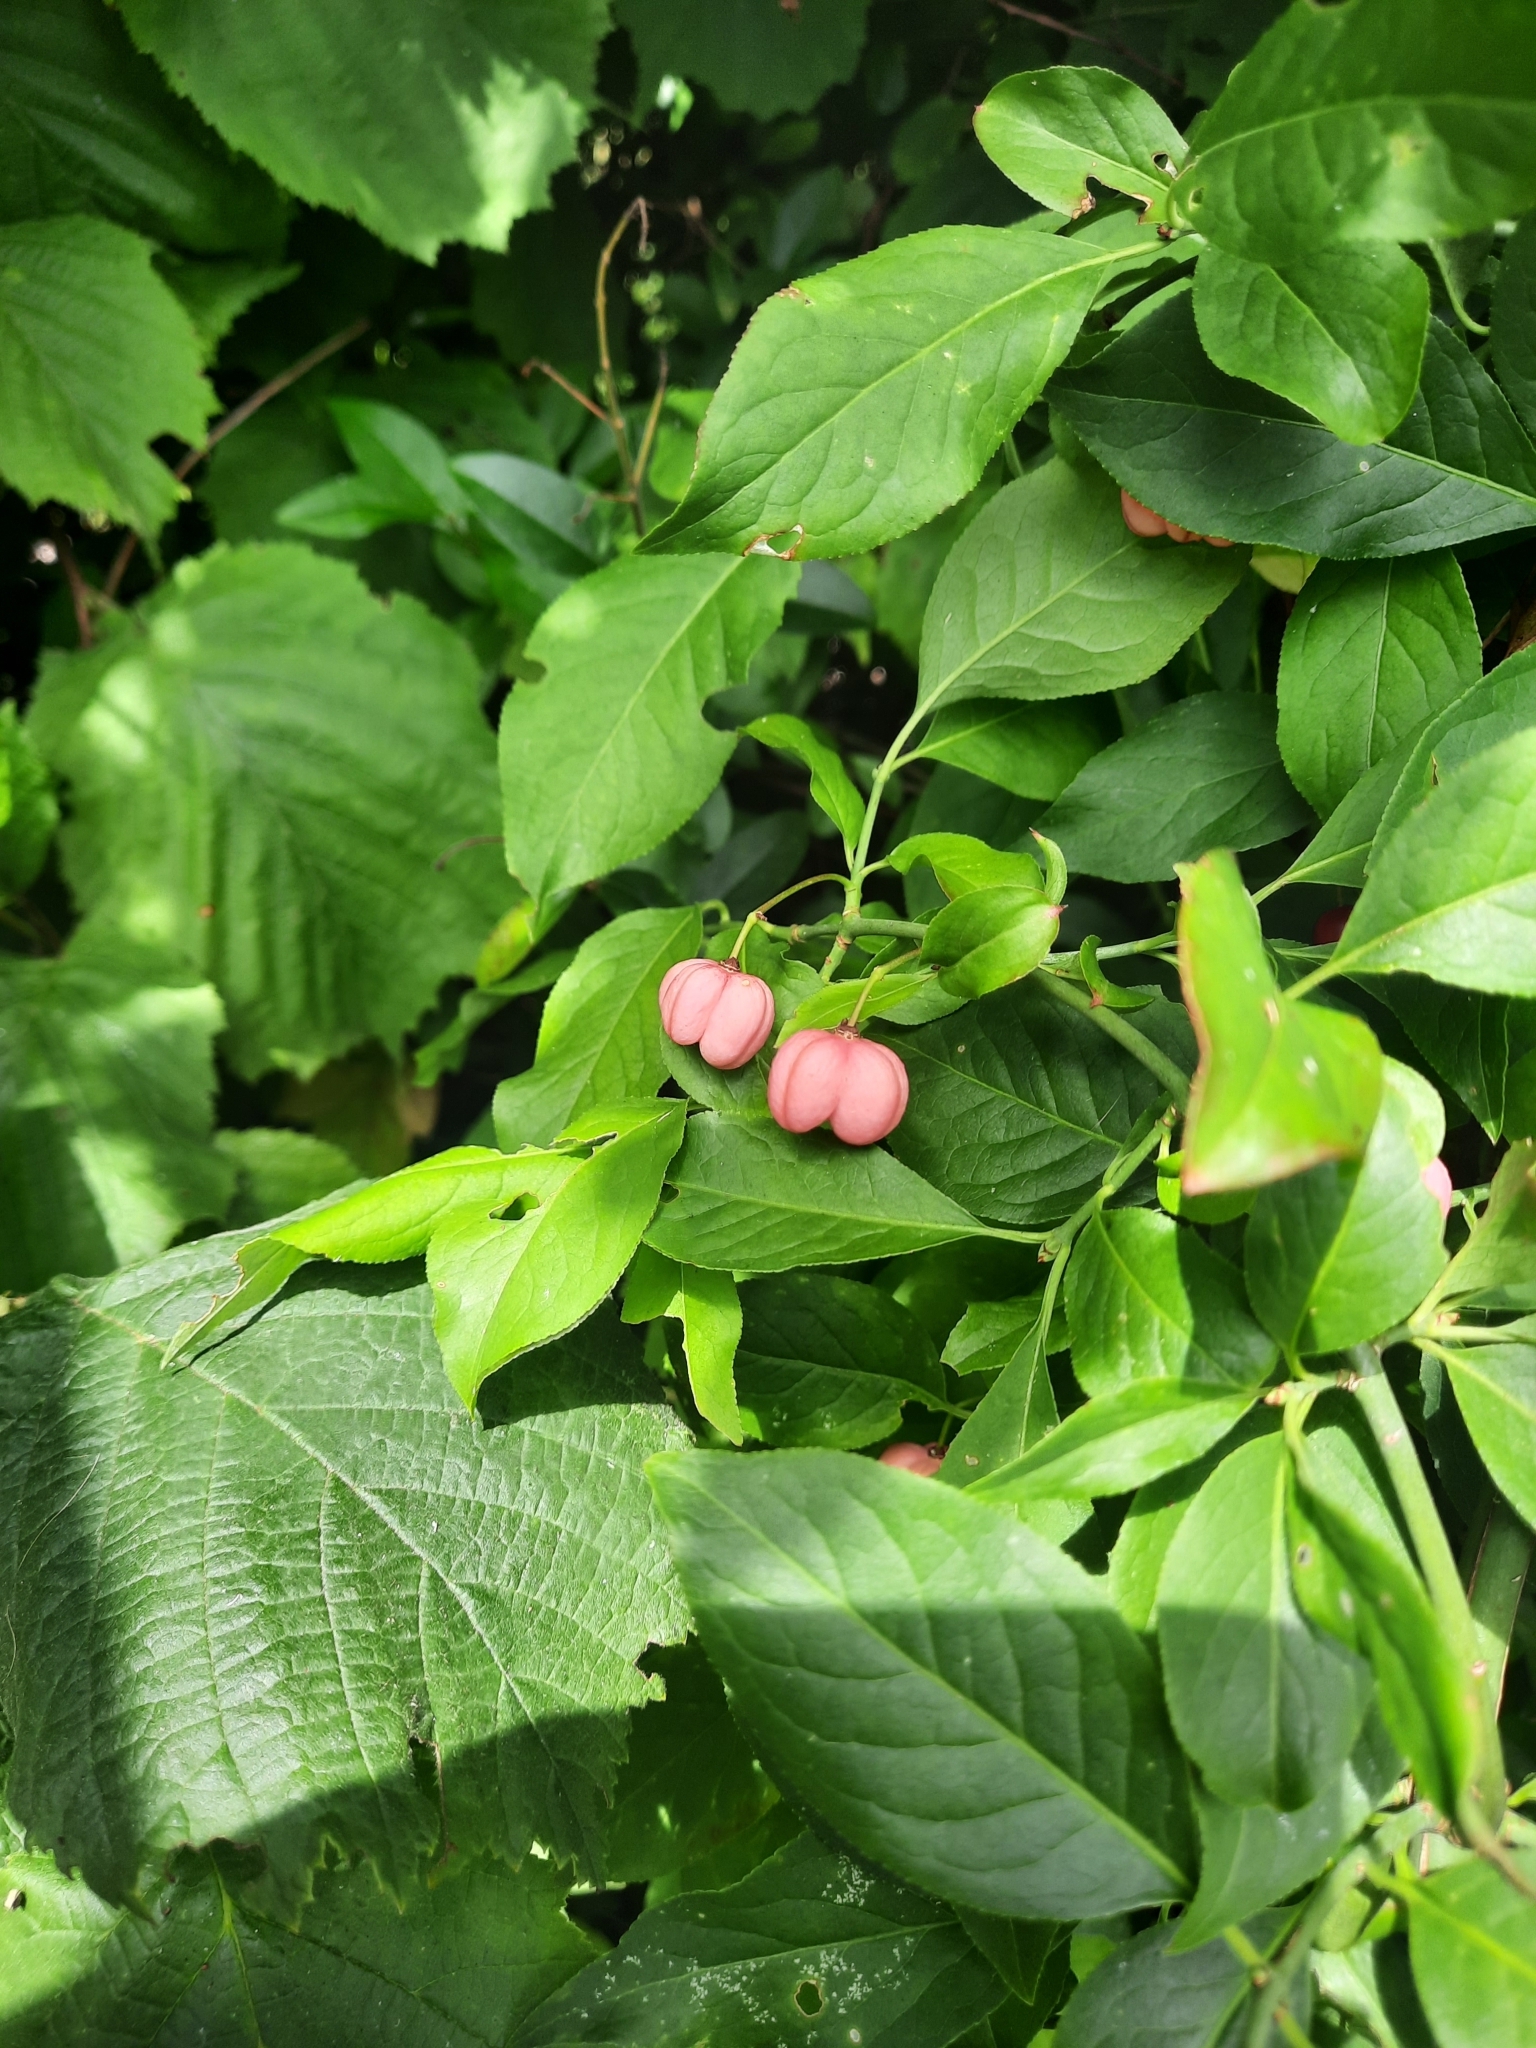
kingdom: Plantae
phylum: Tracheophyta
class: Magnoliopsida
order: Celastrales
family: Celastraceae
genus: Euonymus
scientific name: Euonymus europaeus
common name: Spindle
